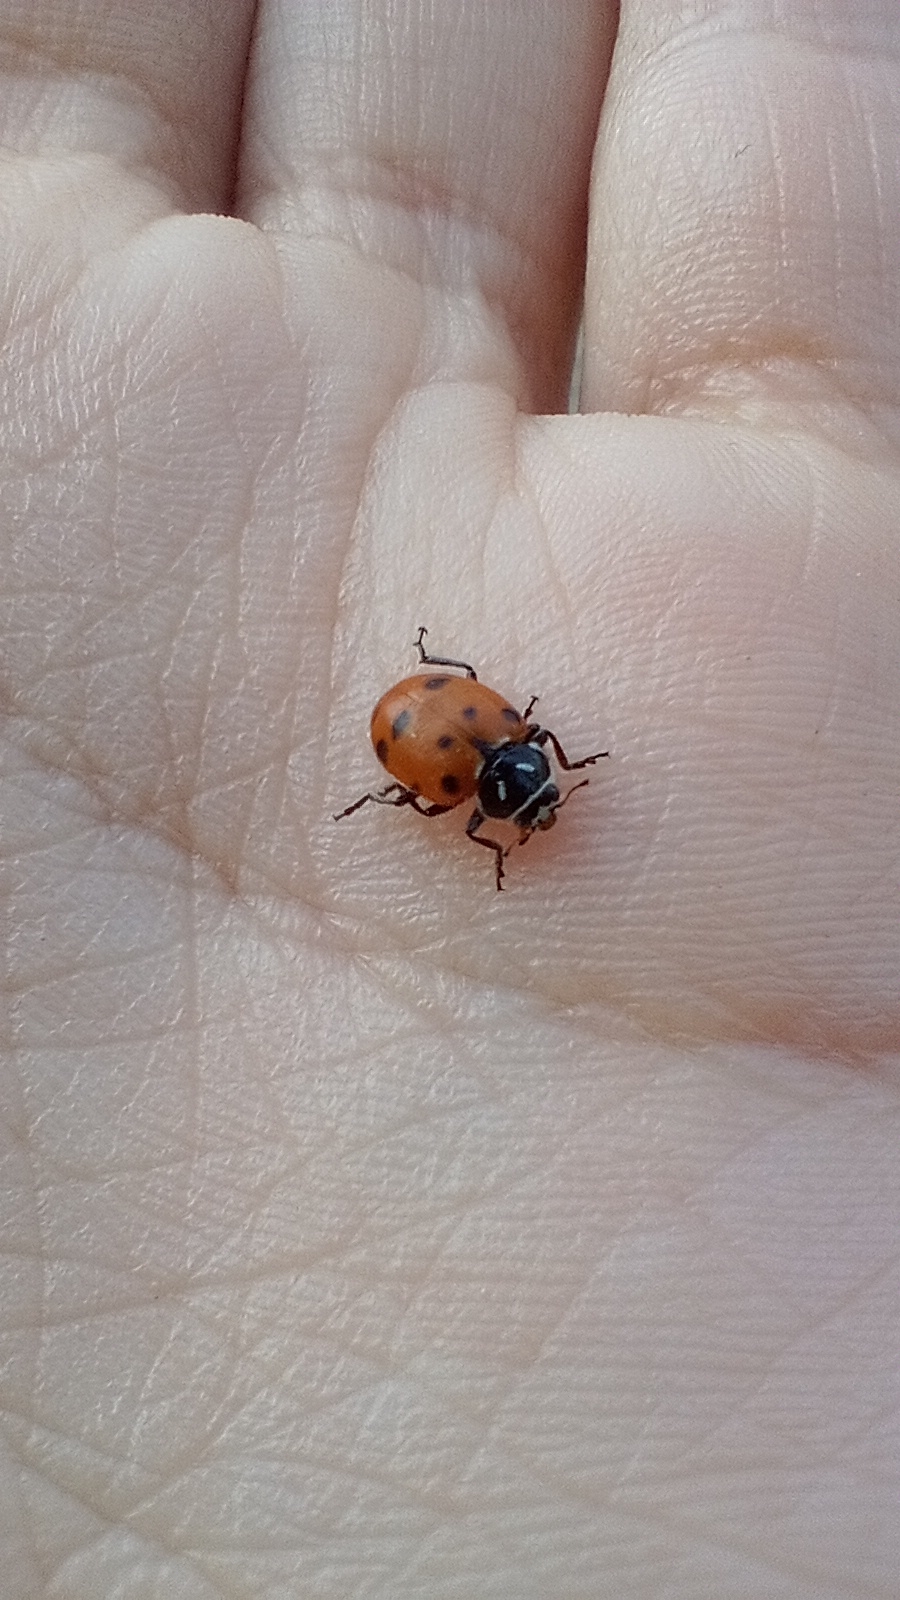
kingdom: Animalia
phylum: Arthropoda
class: Insecta
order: Coleoptera
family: Coccinellidae
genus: Hippodamia
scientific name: Hippodamia convergens
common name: Convergent lady beetle
